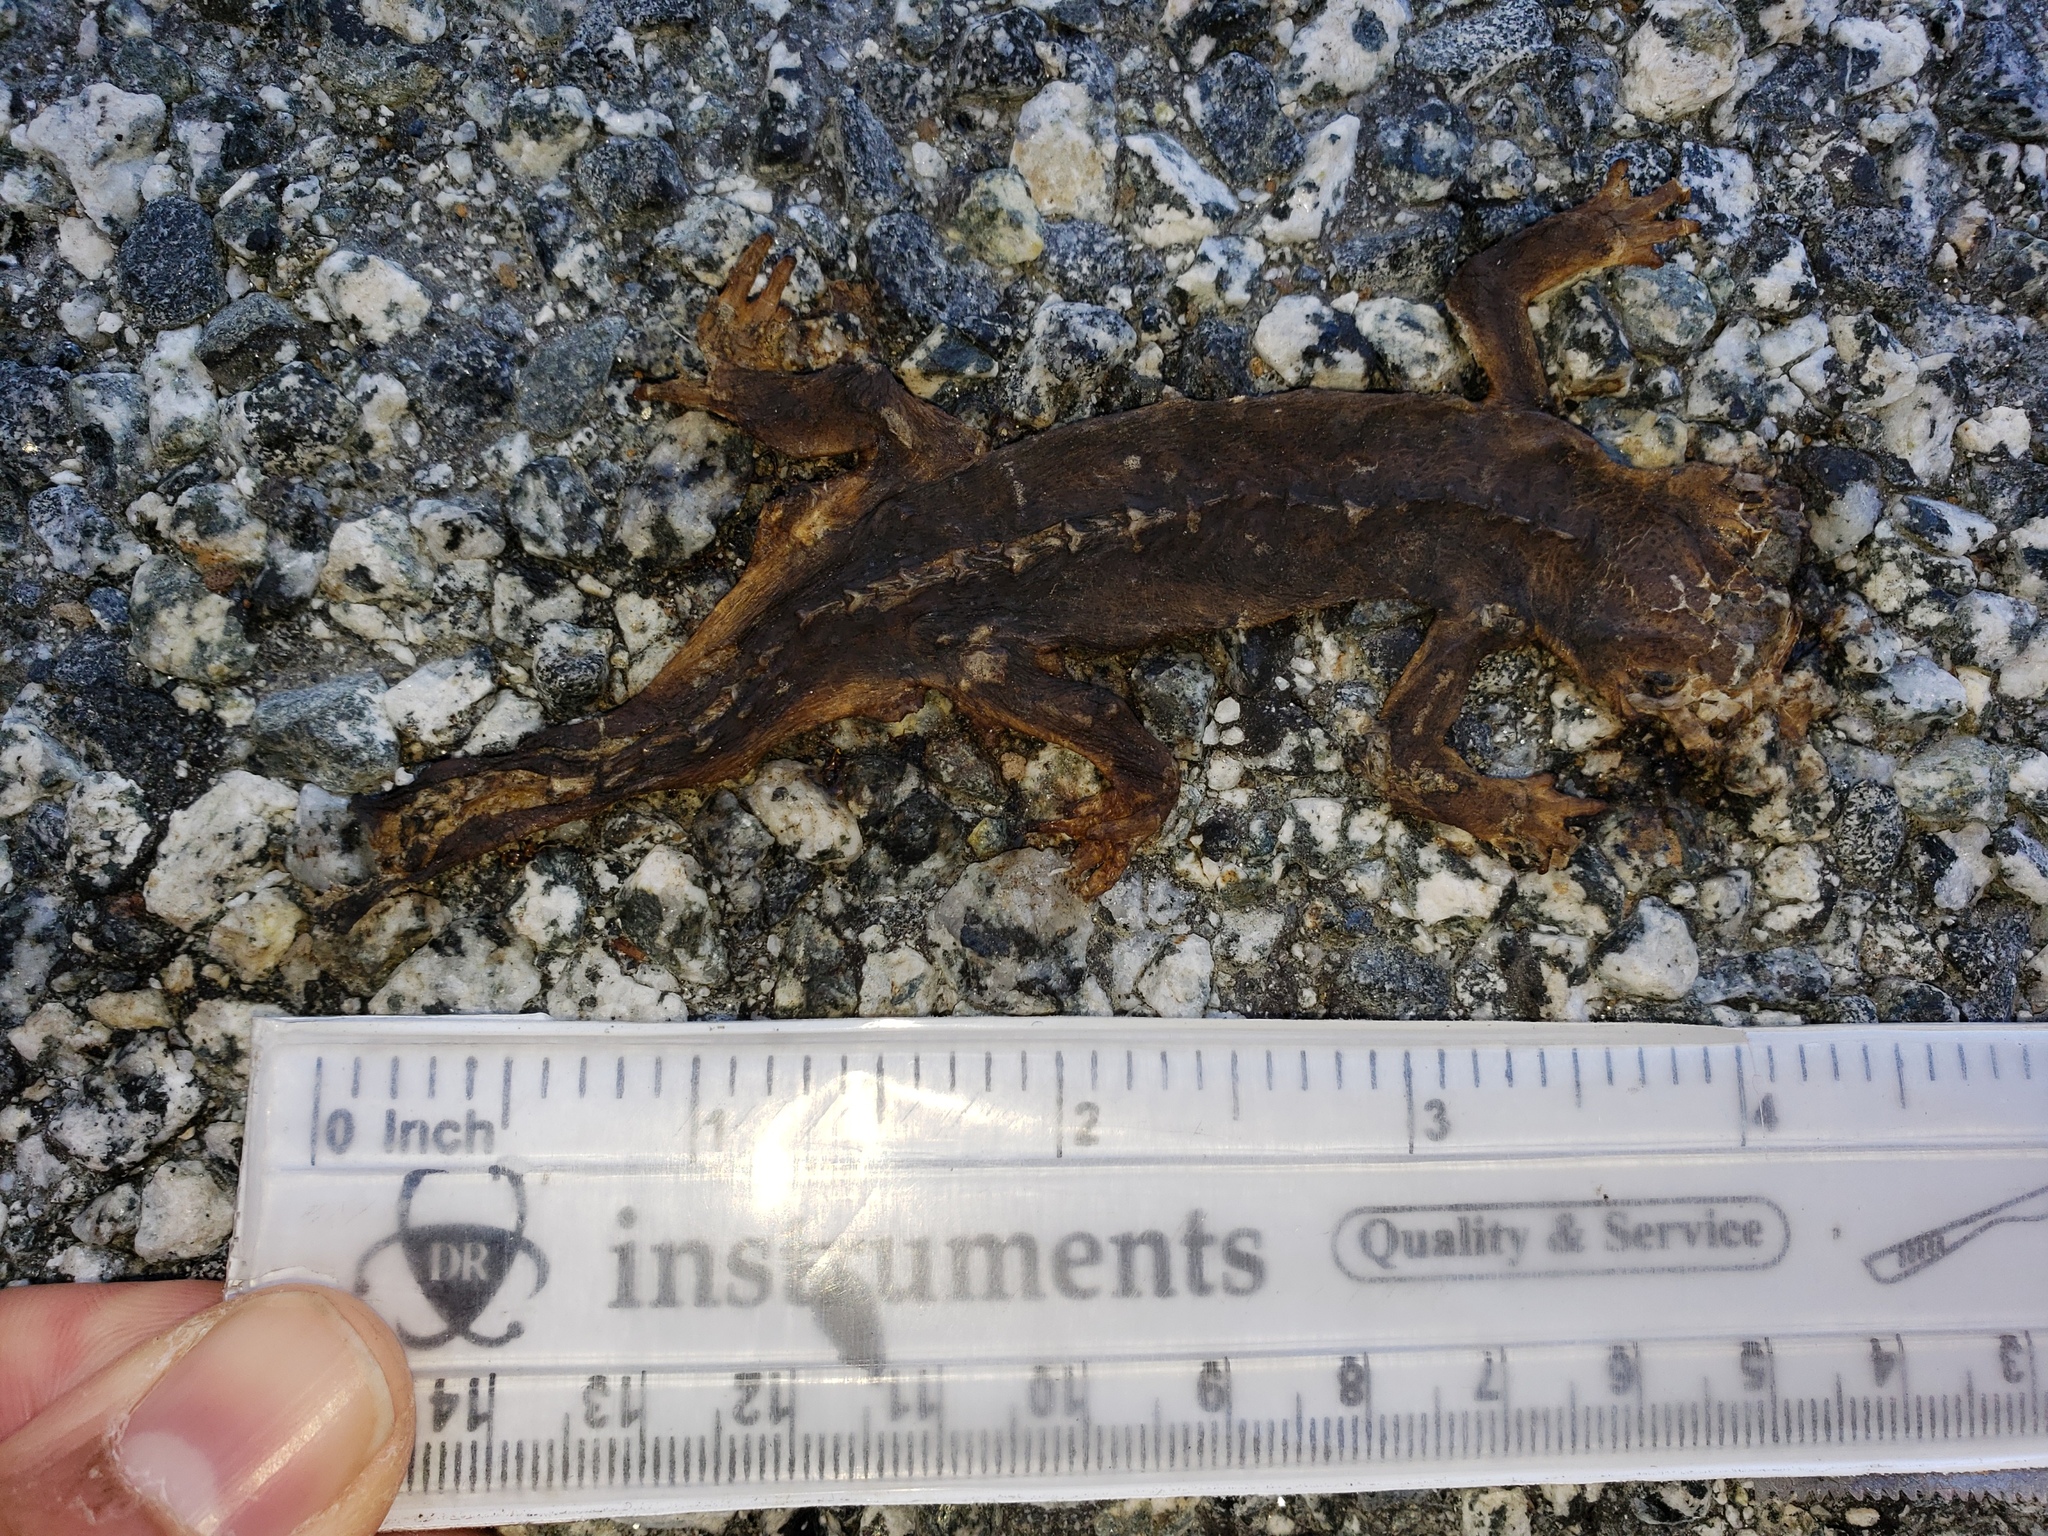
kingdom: Animalia
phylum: Chordata
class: Amphibia
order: Caudata
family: Salamandridae
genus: Taricha
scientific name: Taricha
